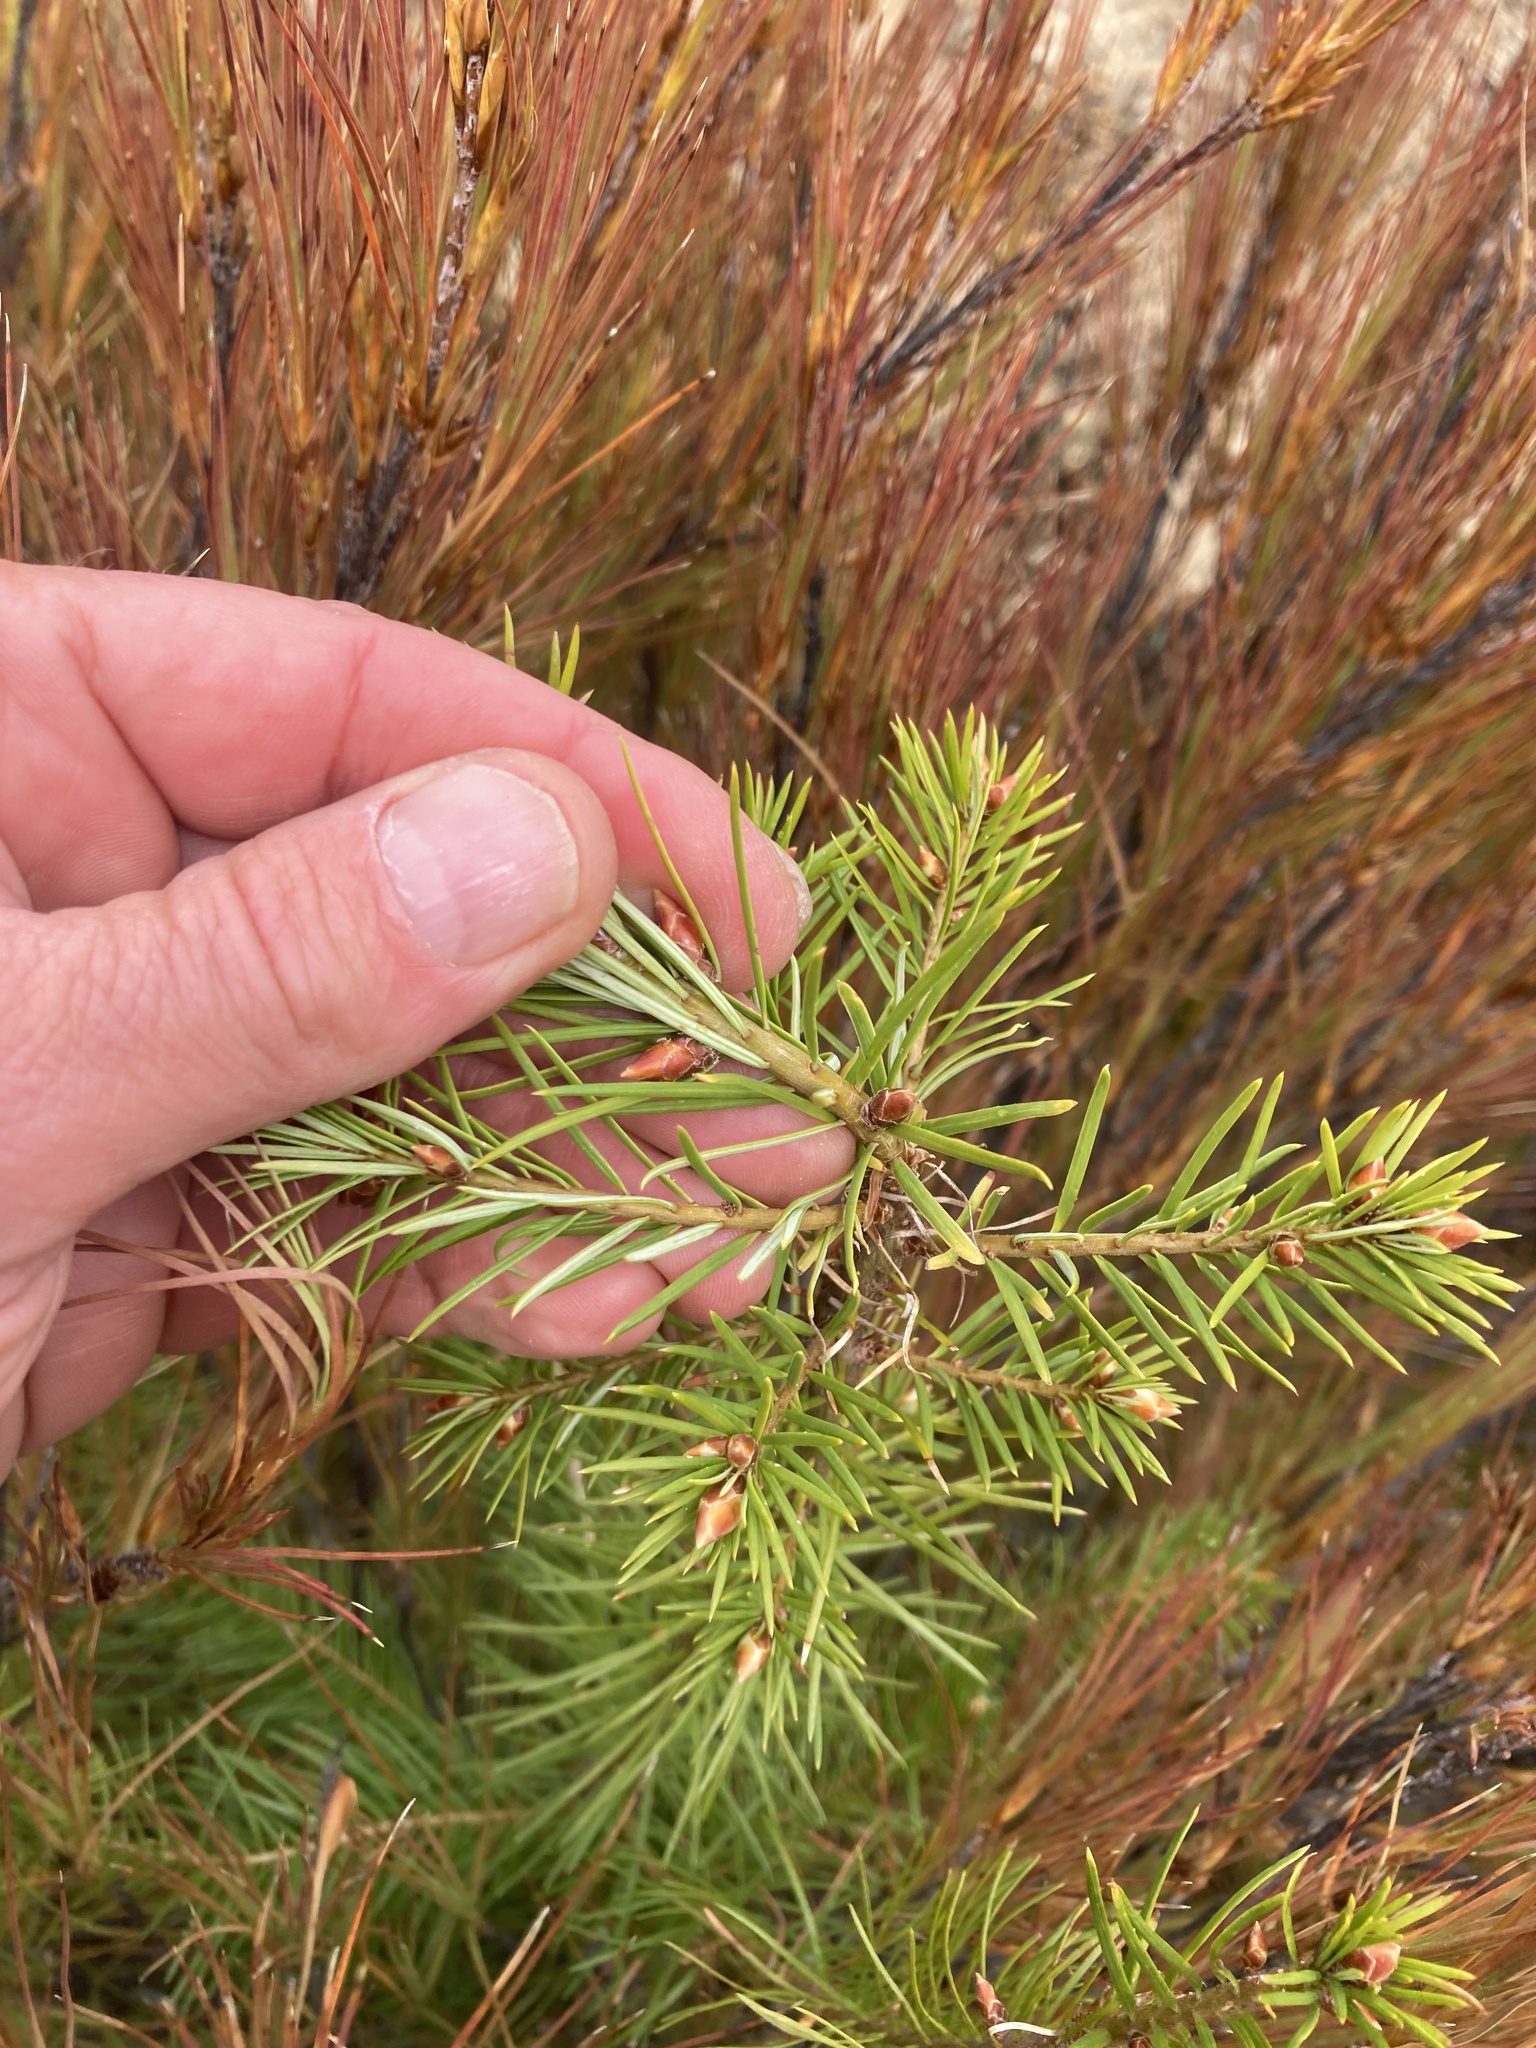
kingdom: Plantae
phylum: Tracheophyta
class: Pinopsida
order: Pinales
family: Pinaceae
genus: Pseudotsuga
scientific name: Pseudotsuga menziesii
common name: Douglas fir
